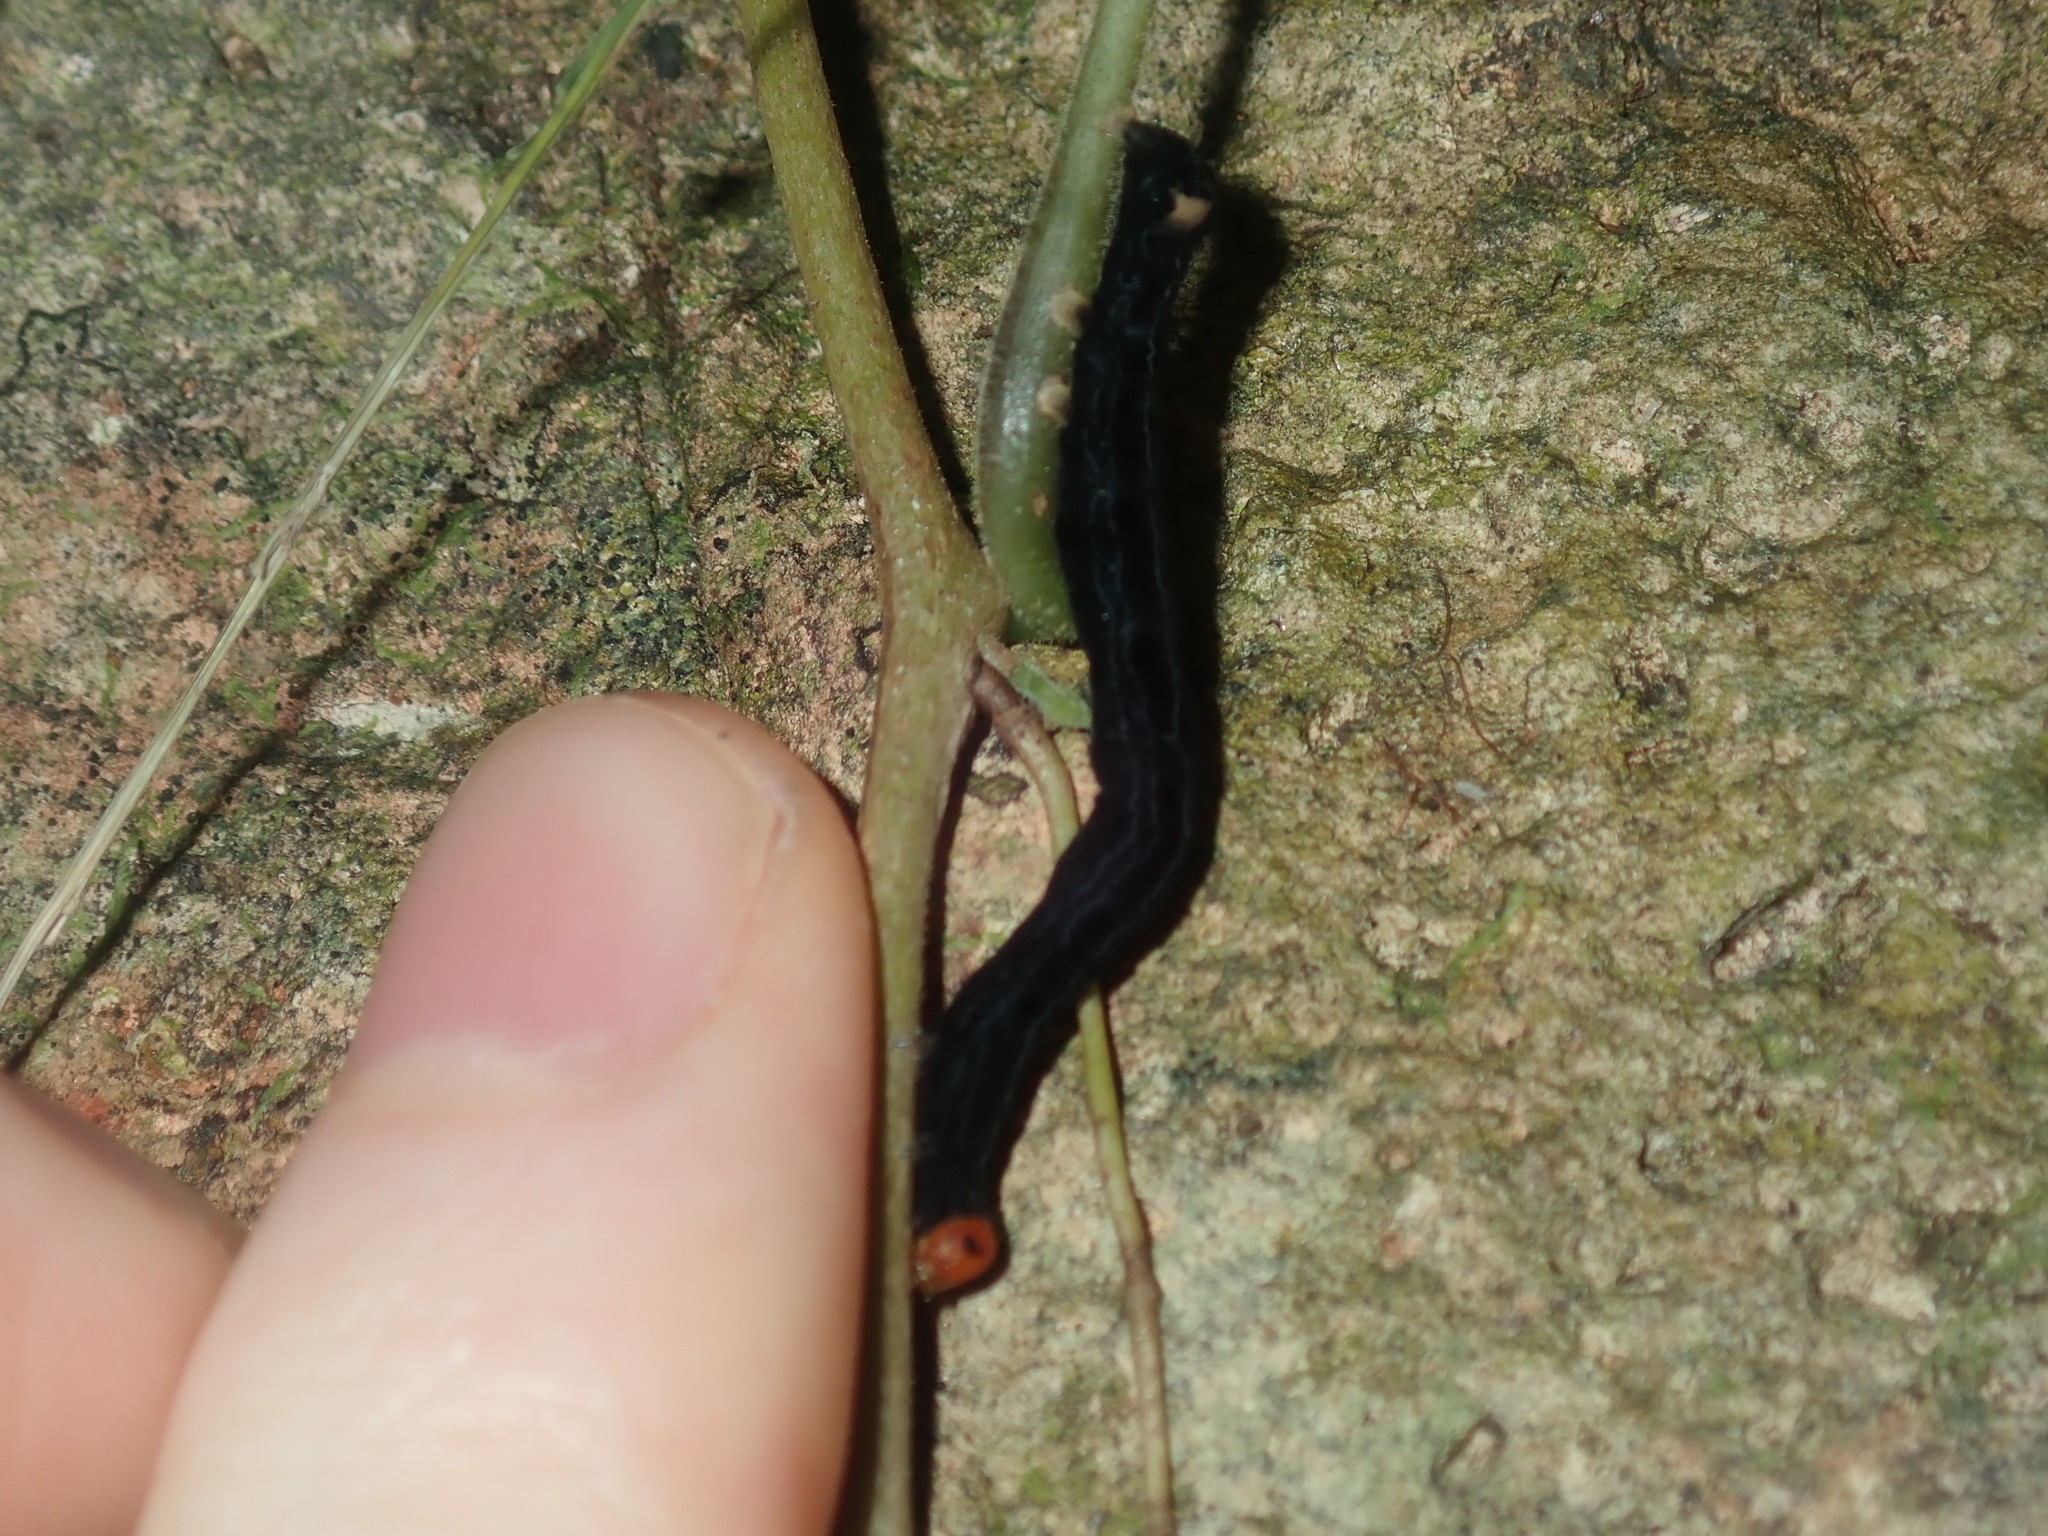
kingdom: Animalia
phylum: Arthropoda
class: Insecta
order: Lepidoptera
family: Erebidae
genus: Calyptra
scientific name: Calyptra minuticornis
